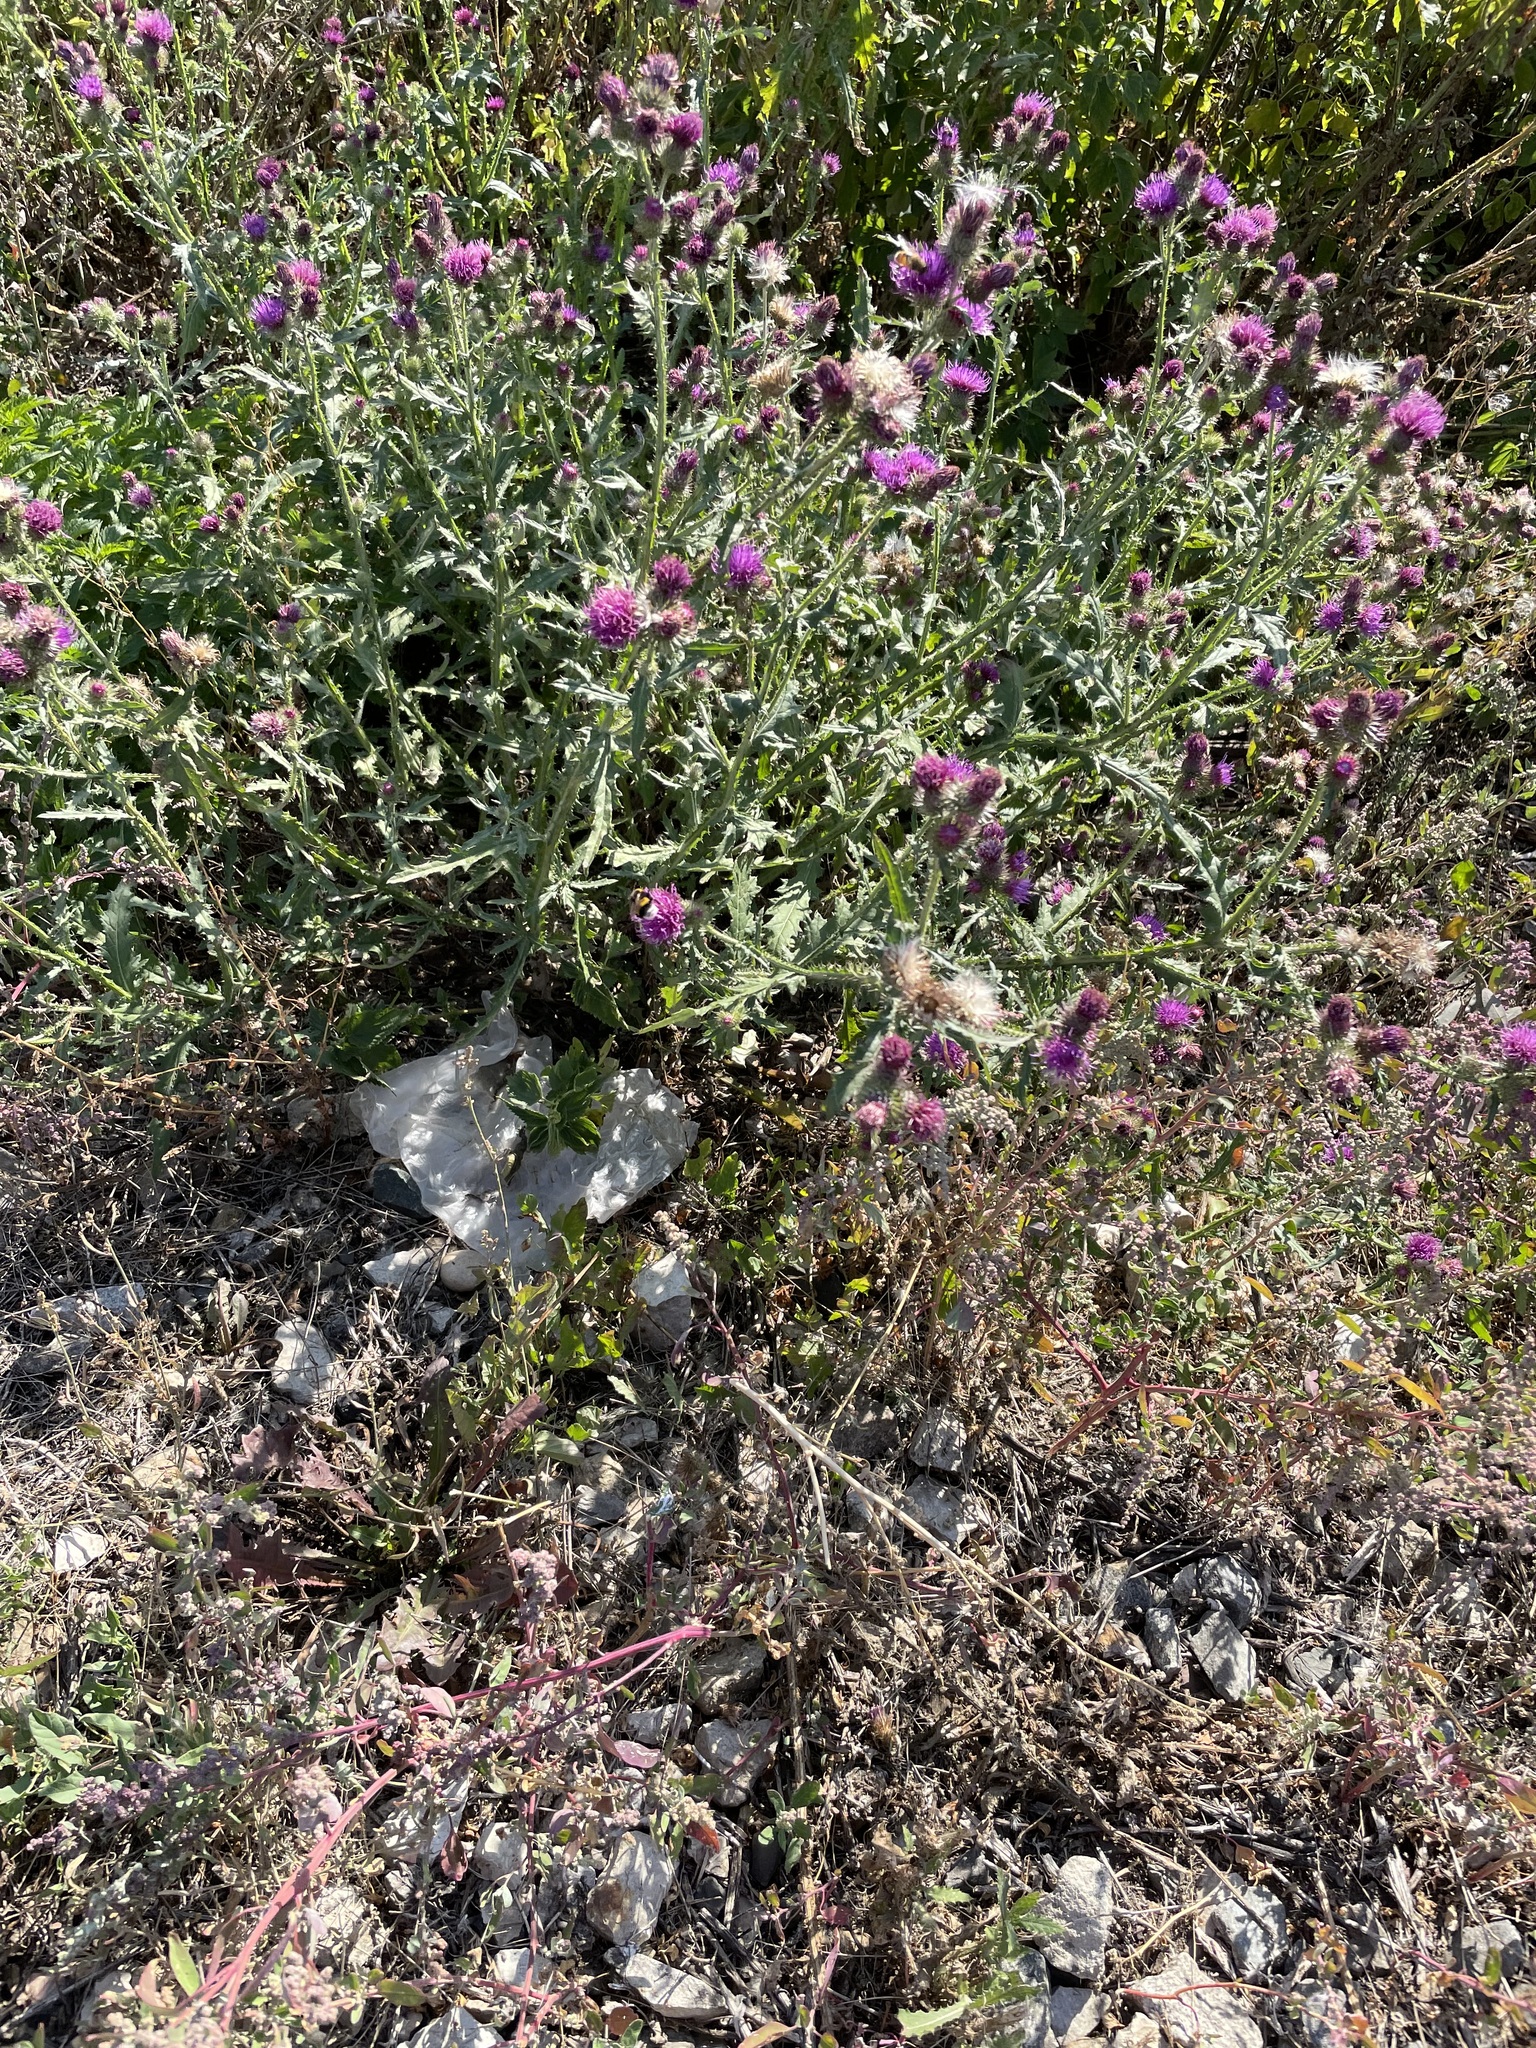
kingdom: Plantae
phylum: Tracheophyta
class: Magnoliopsida
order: Asterales
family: Asteraceae
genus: Carduus
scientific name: Carduus acanthoides
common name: Plumeless thistle
